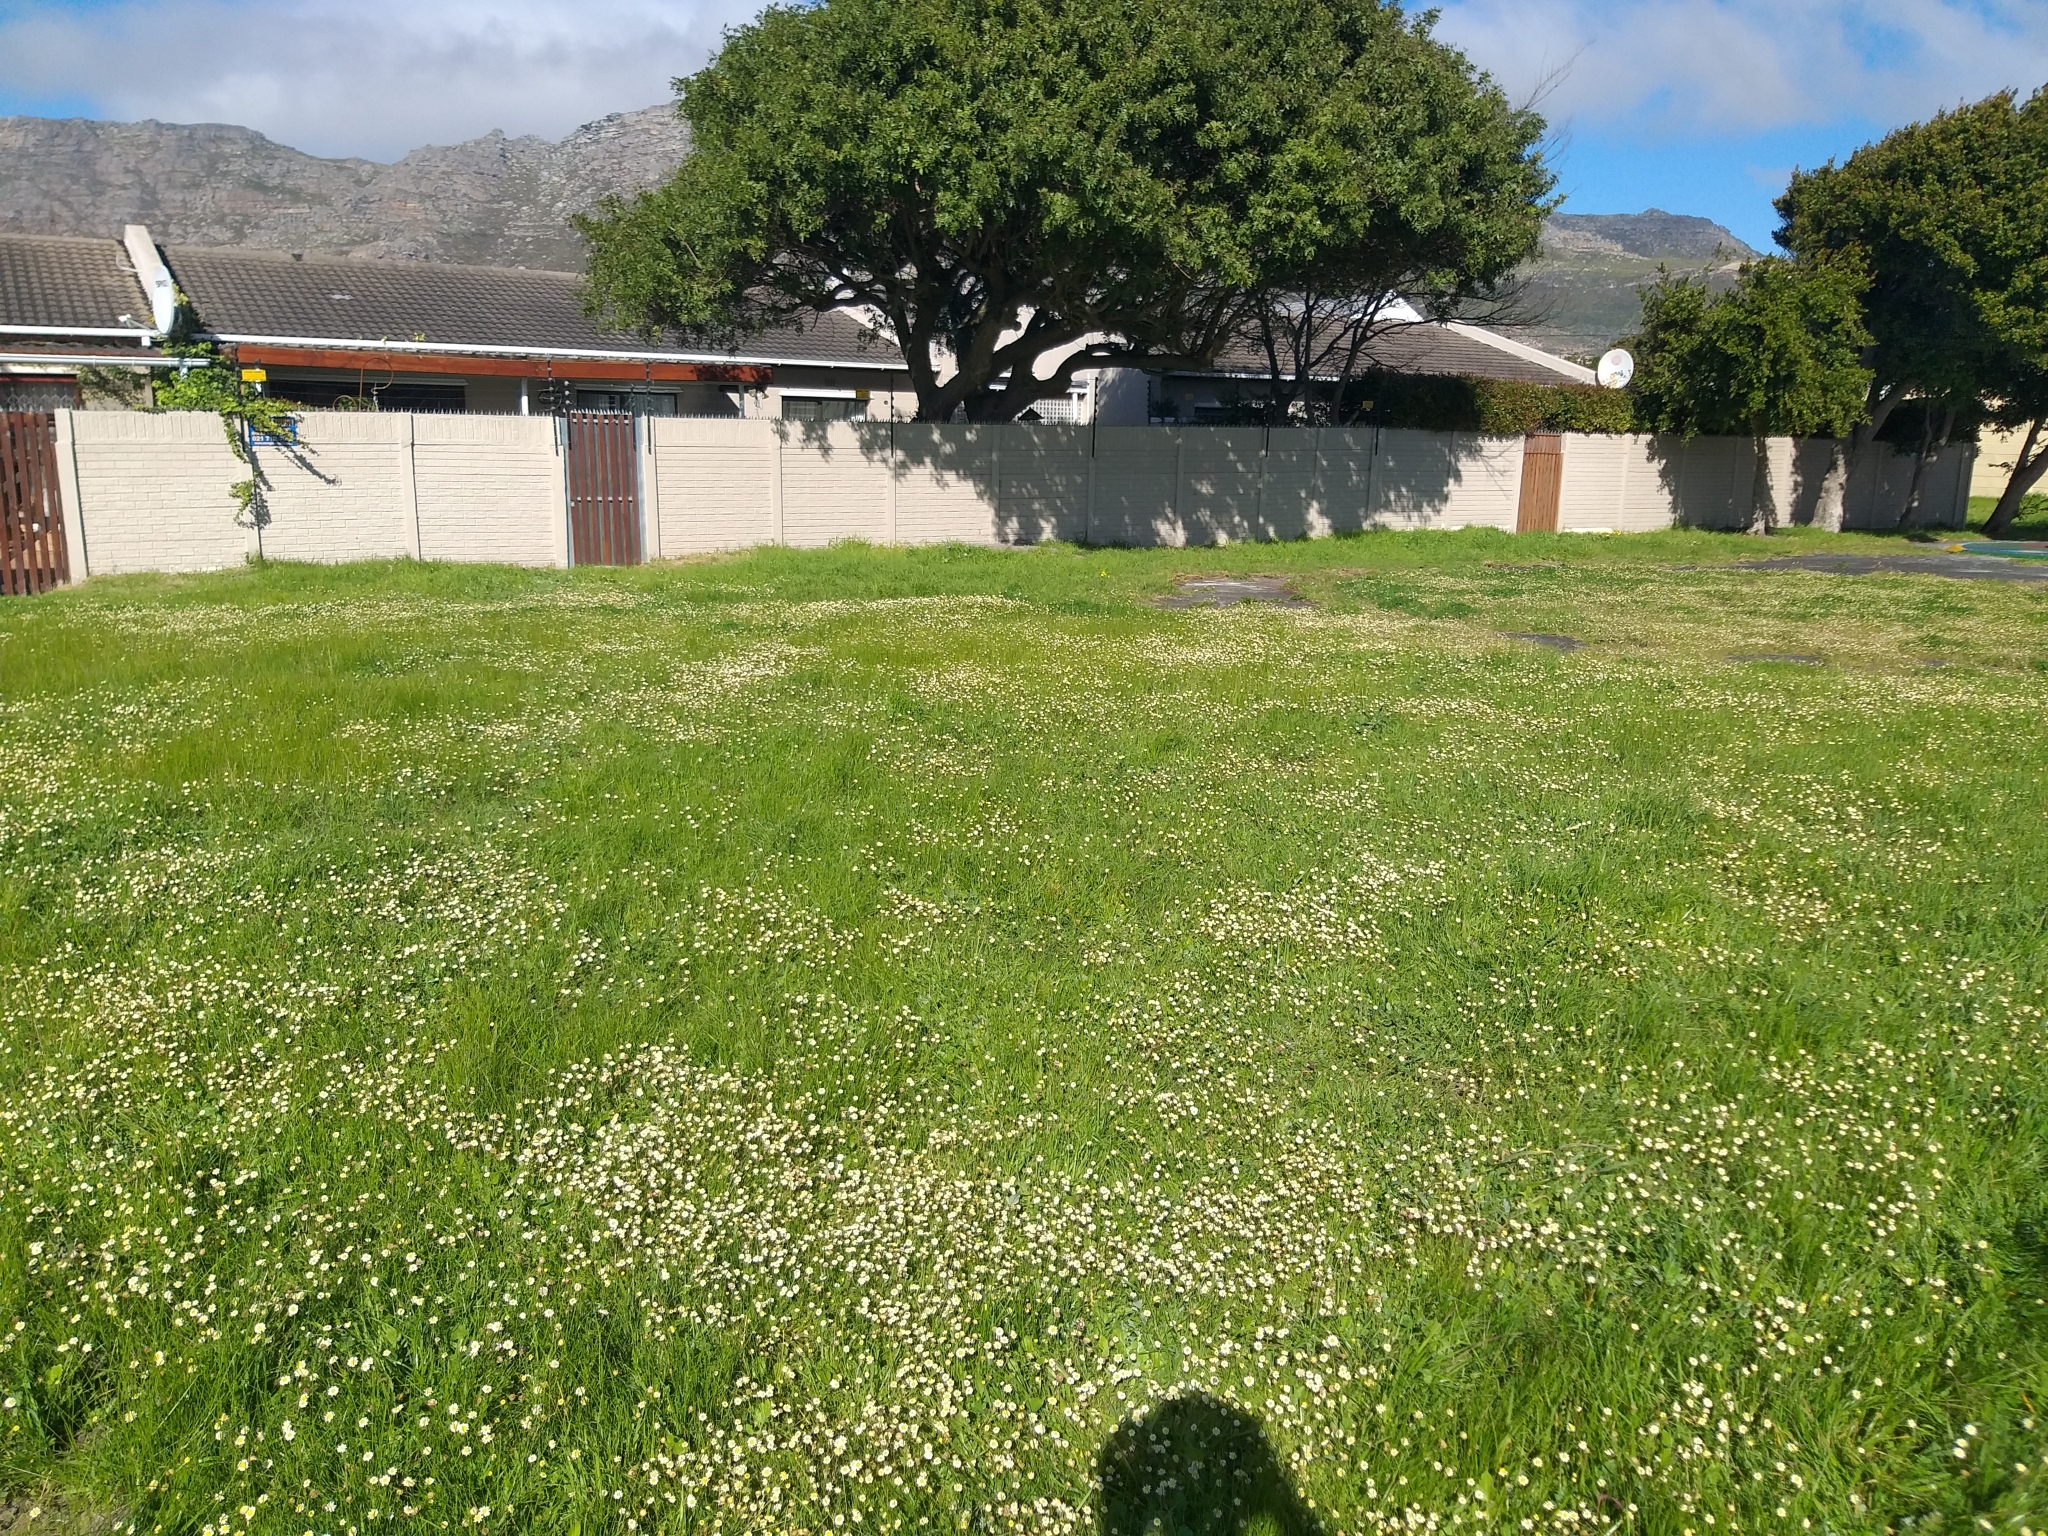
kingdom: Plantae
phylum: Tracheophyta
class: Magnoliopsida
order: Asterales
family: Asteraceae
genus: Cotula
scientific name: Cotula turbinata
